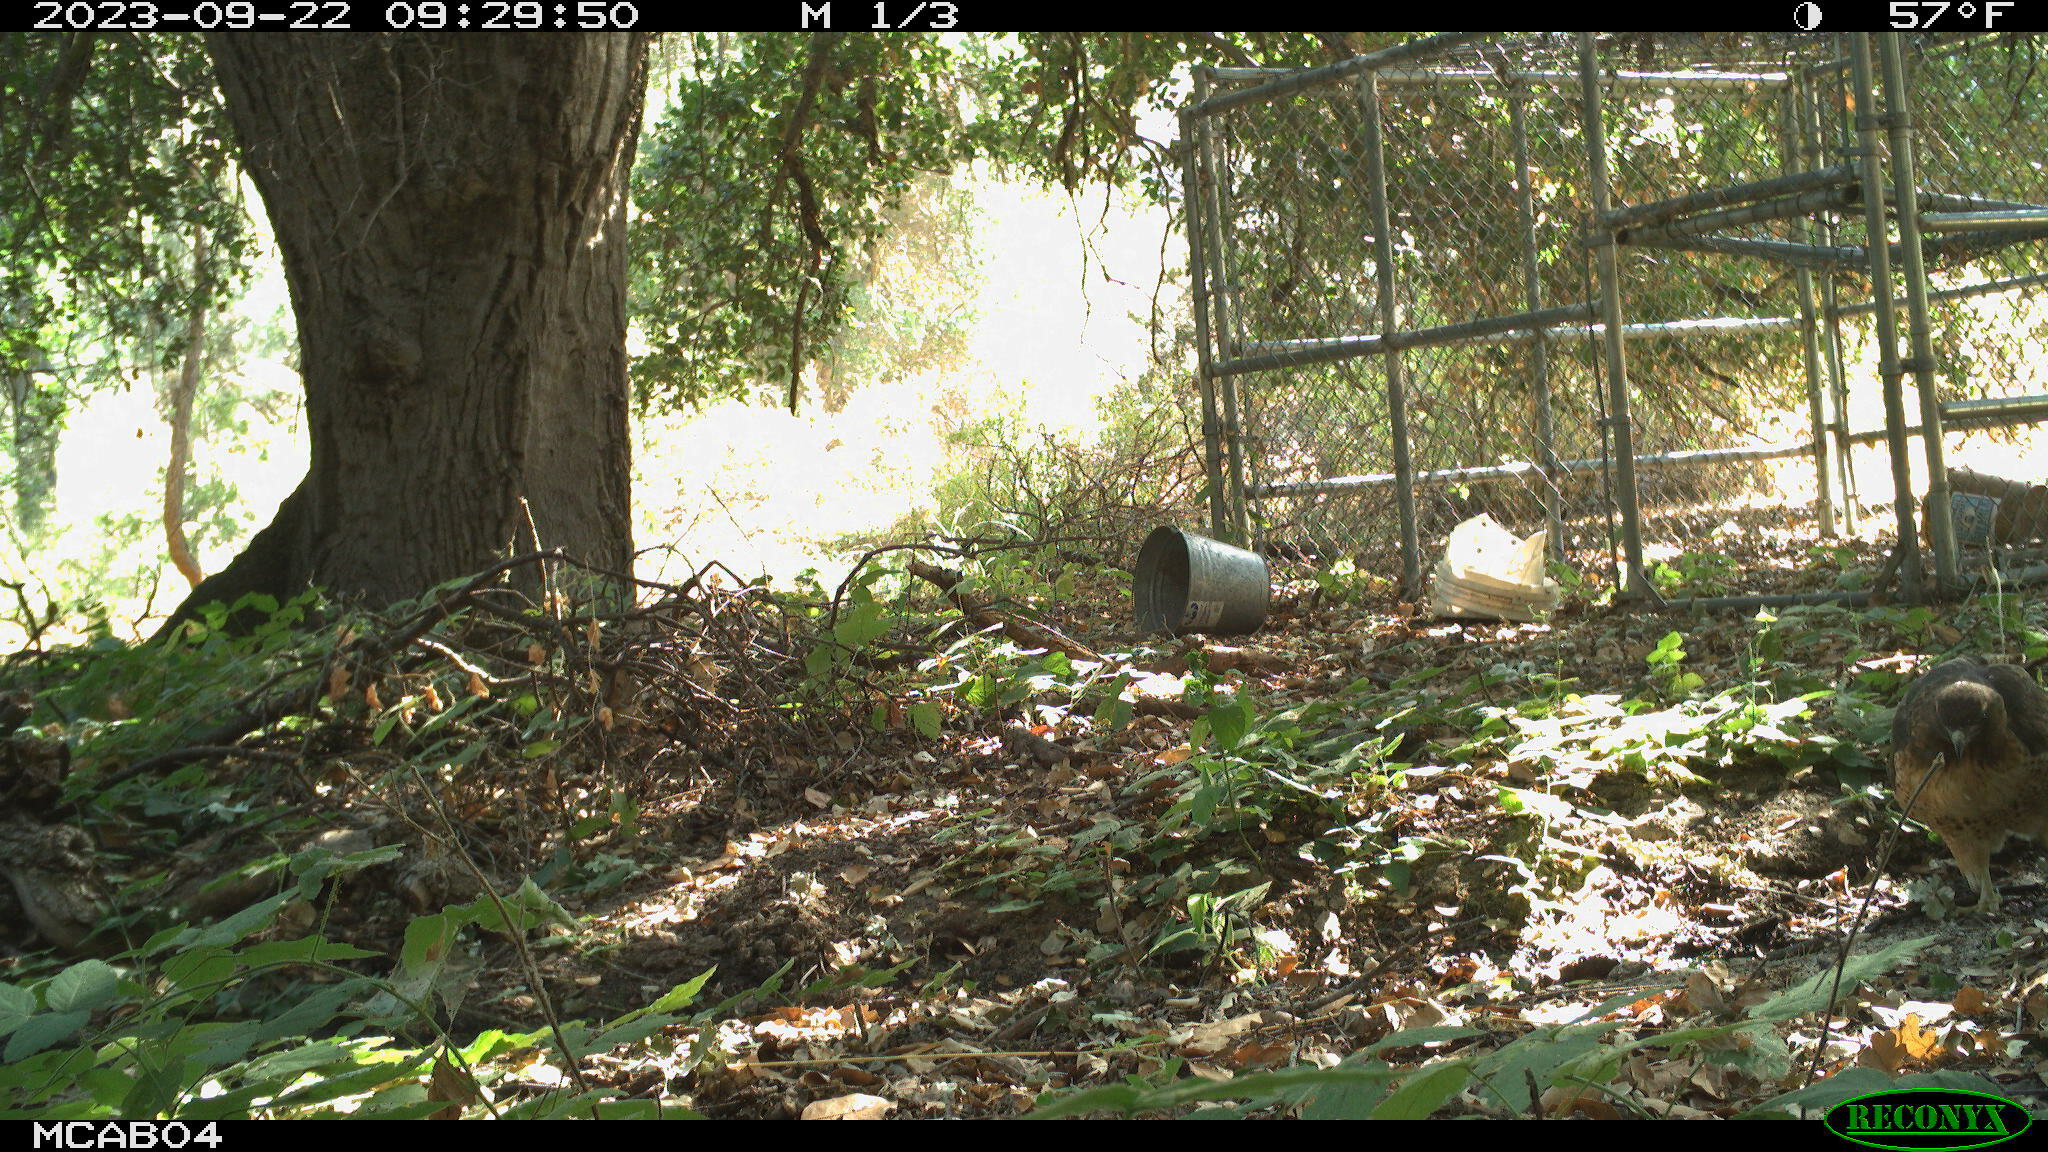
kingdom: Animalia
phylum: Chordata
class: Aves
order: Accipitriformes
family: Accipitridae
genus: Buteo
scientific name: Buteo jamaicensis
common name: Red-tailed hawk
